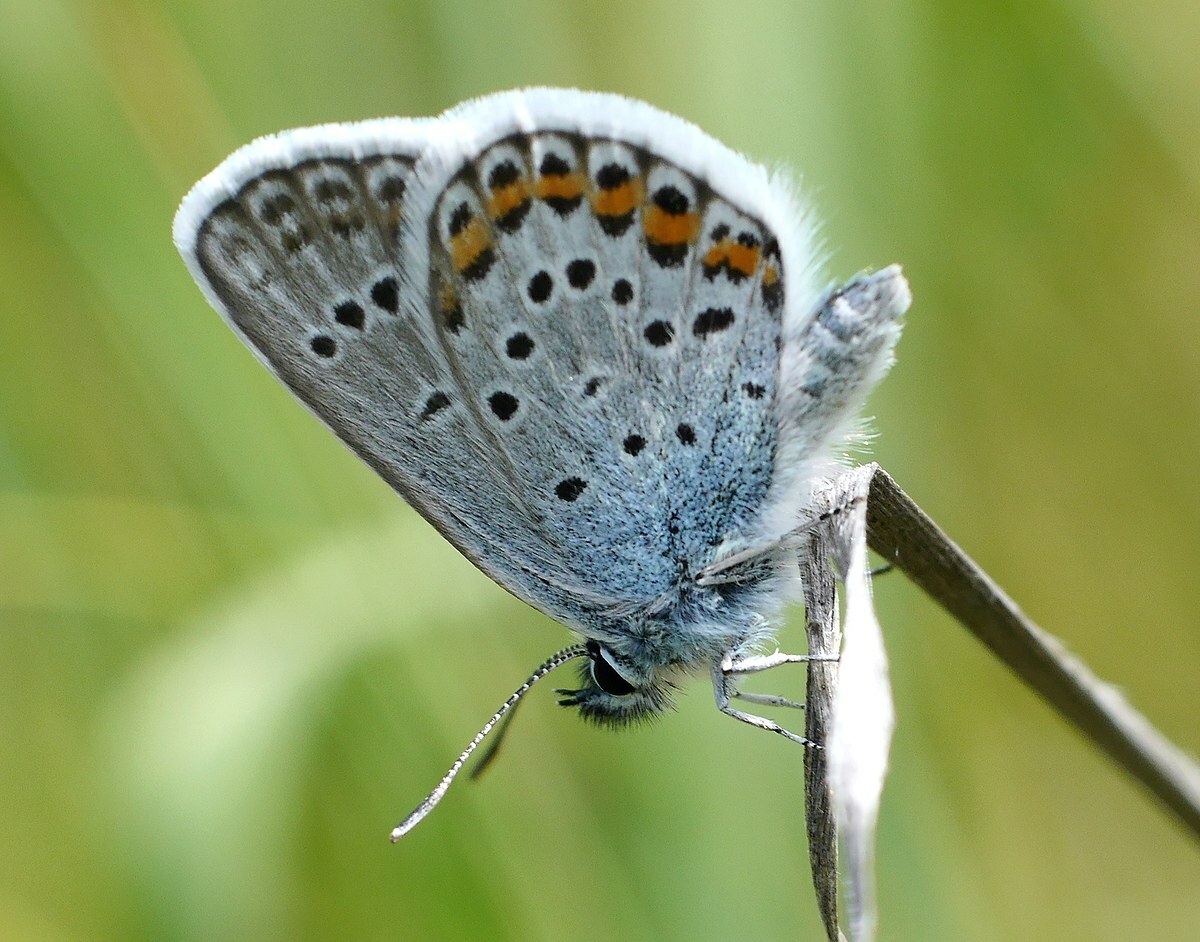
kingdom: Animalia
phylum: Arthropoda
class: Insecta
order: Lepidoptera
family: Lycaenidae
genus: Plebejus
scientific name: Plebejus argus
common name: Silver-studded blue
